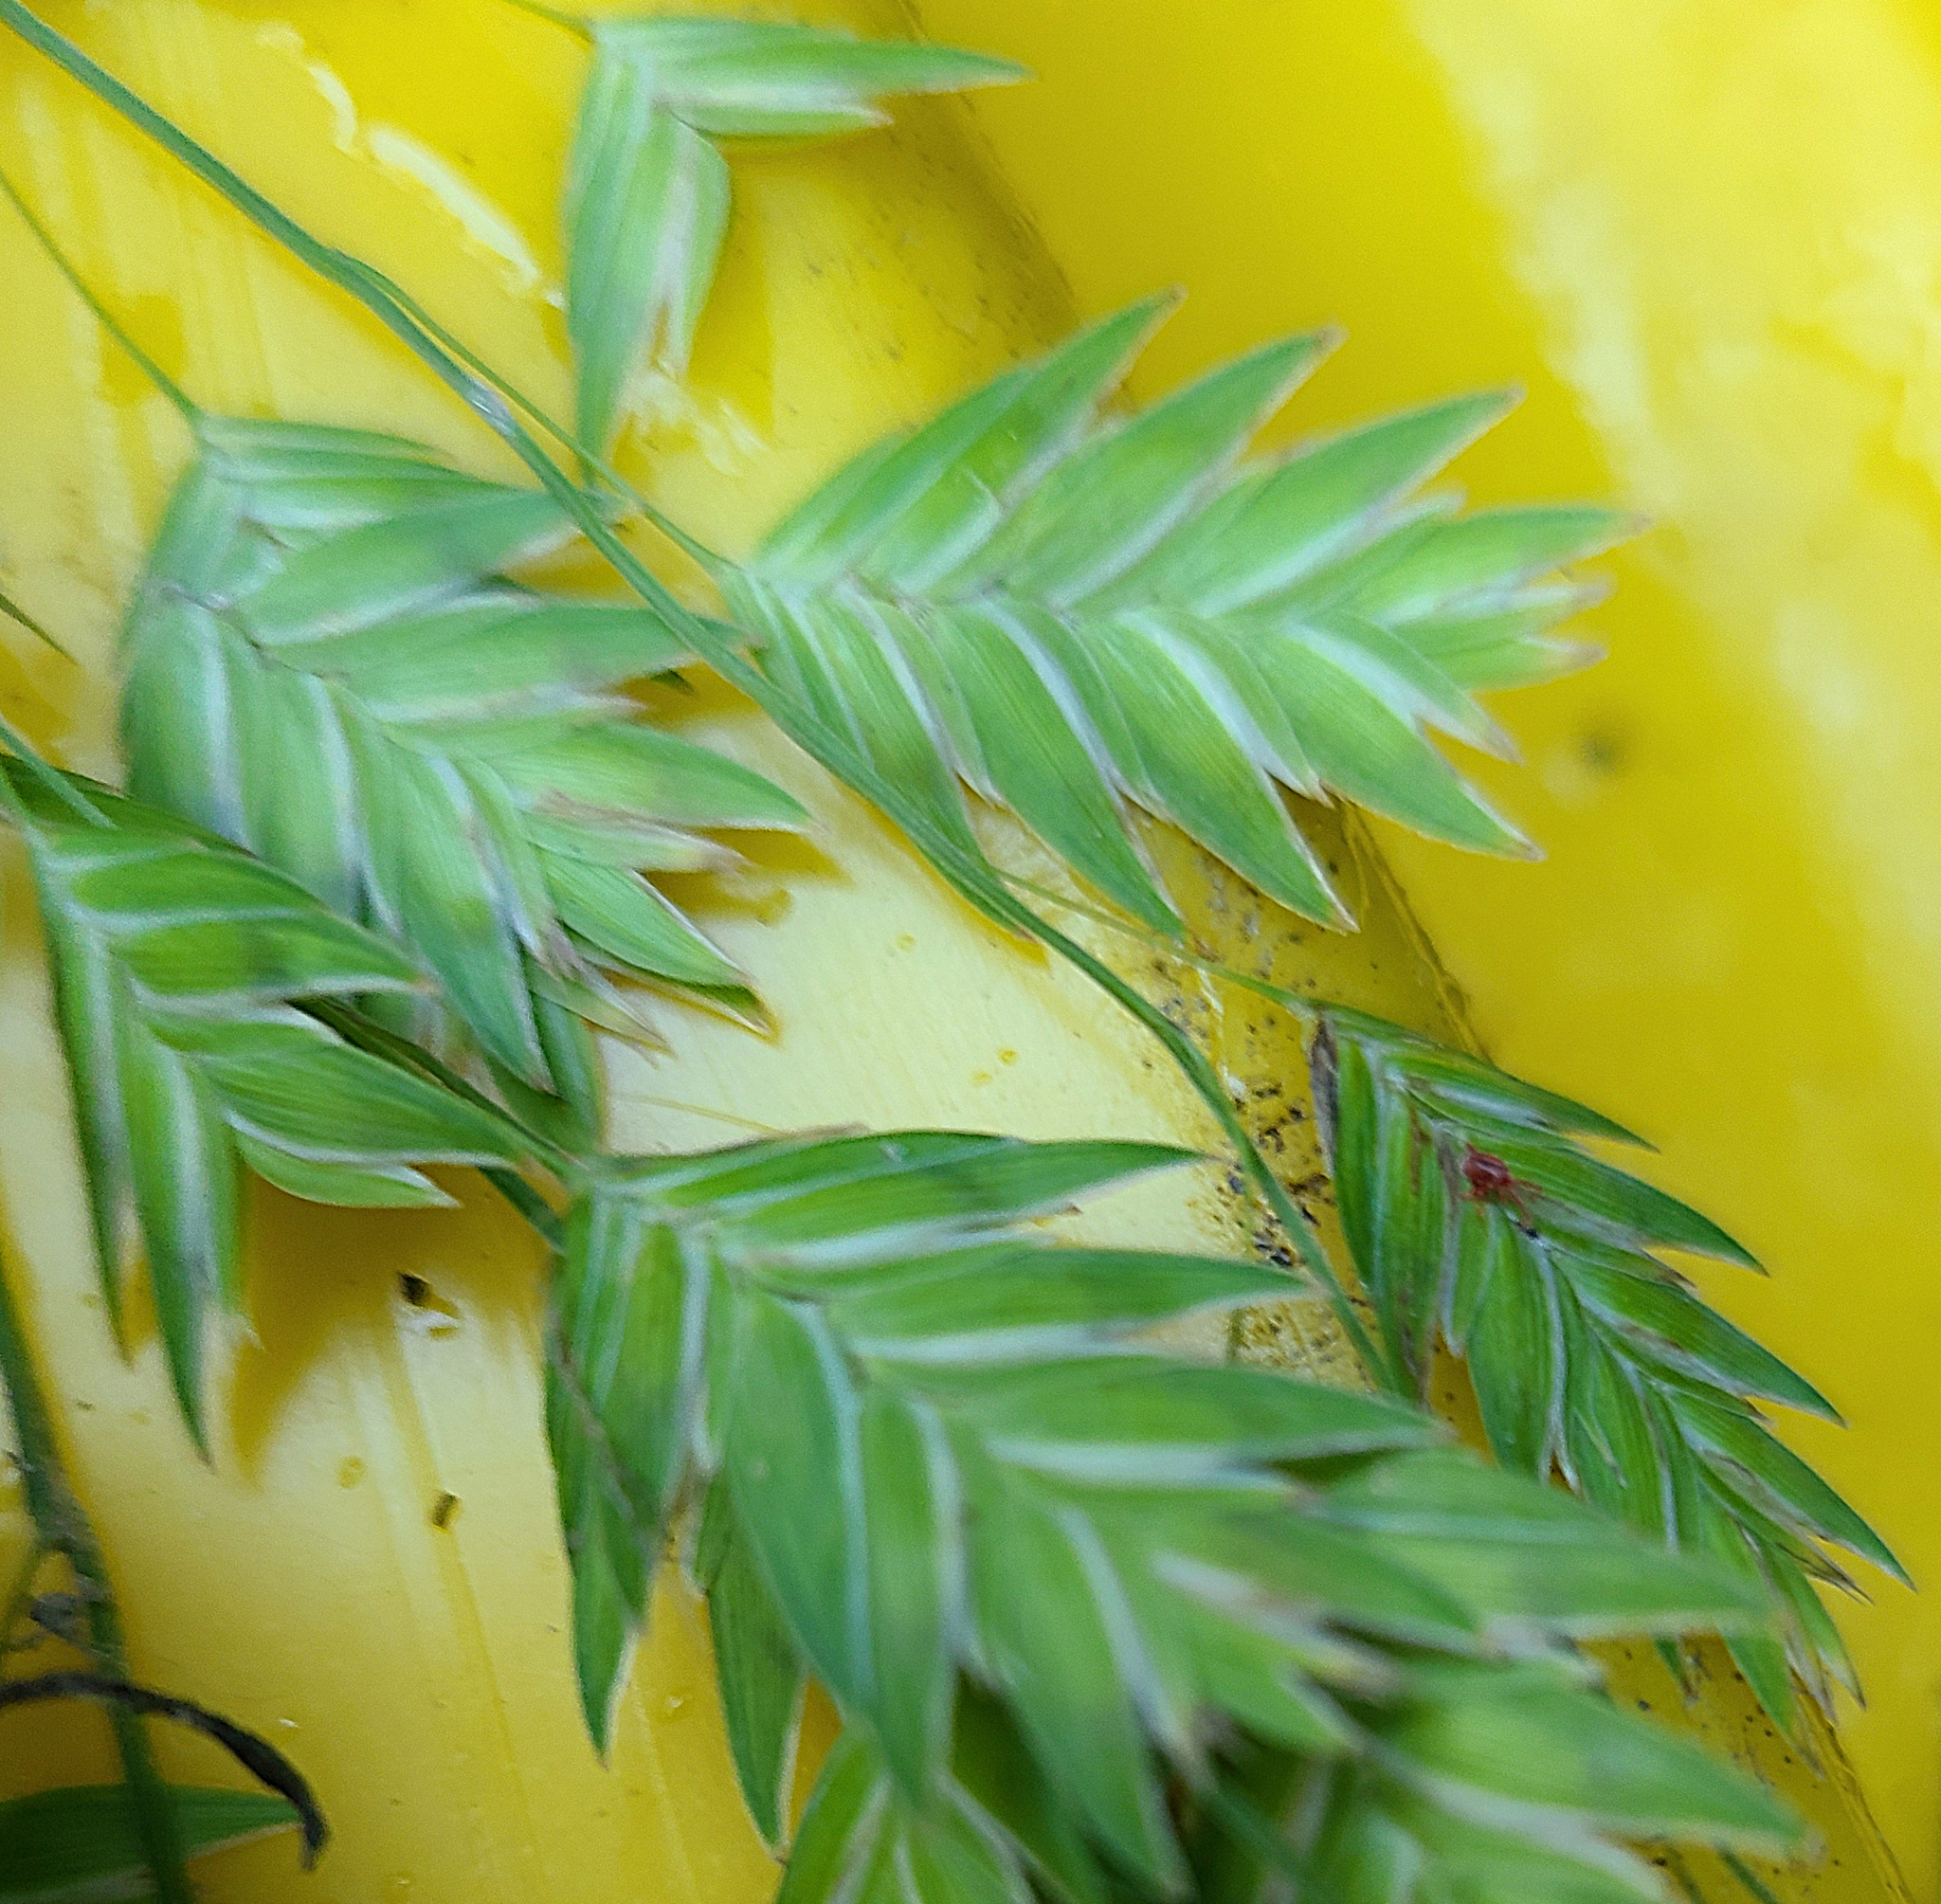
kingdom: Plantae
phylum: Tracheophyta
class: Liliopsida
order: Poales
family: Poaceae
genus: Chasmanthium
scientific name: Chasmanthium latifolium
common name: Broad-leaved chasmanthium
